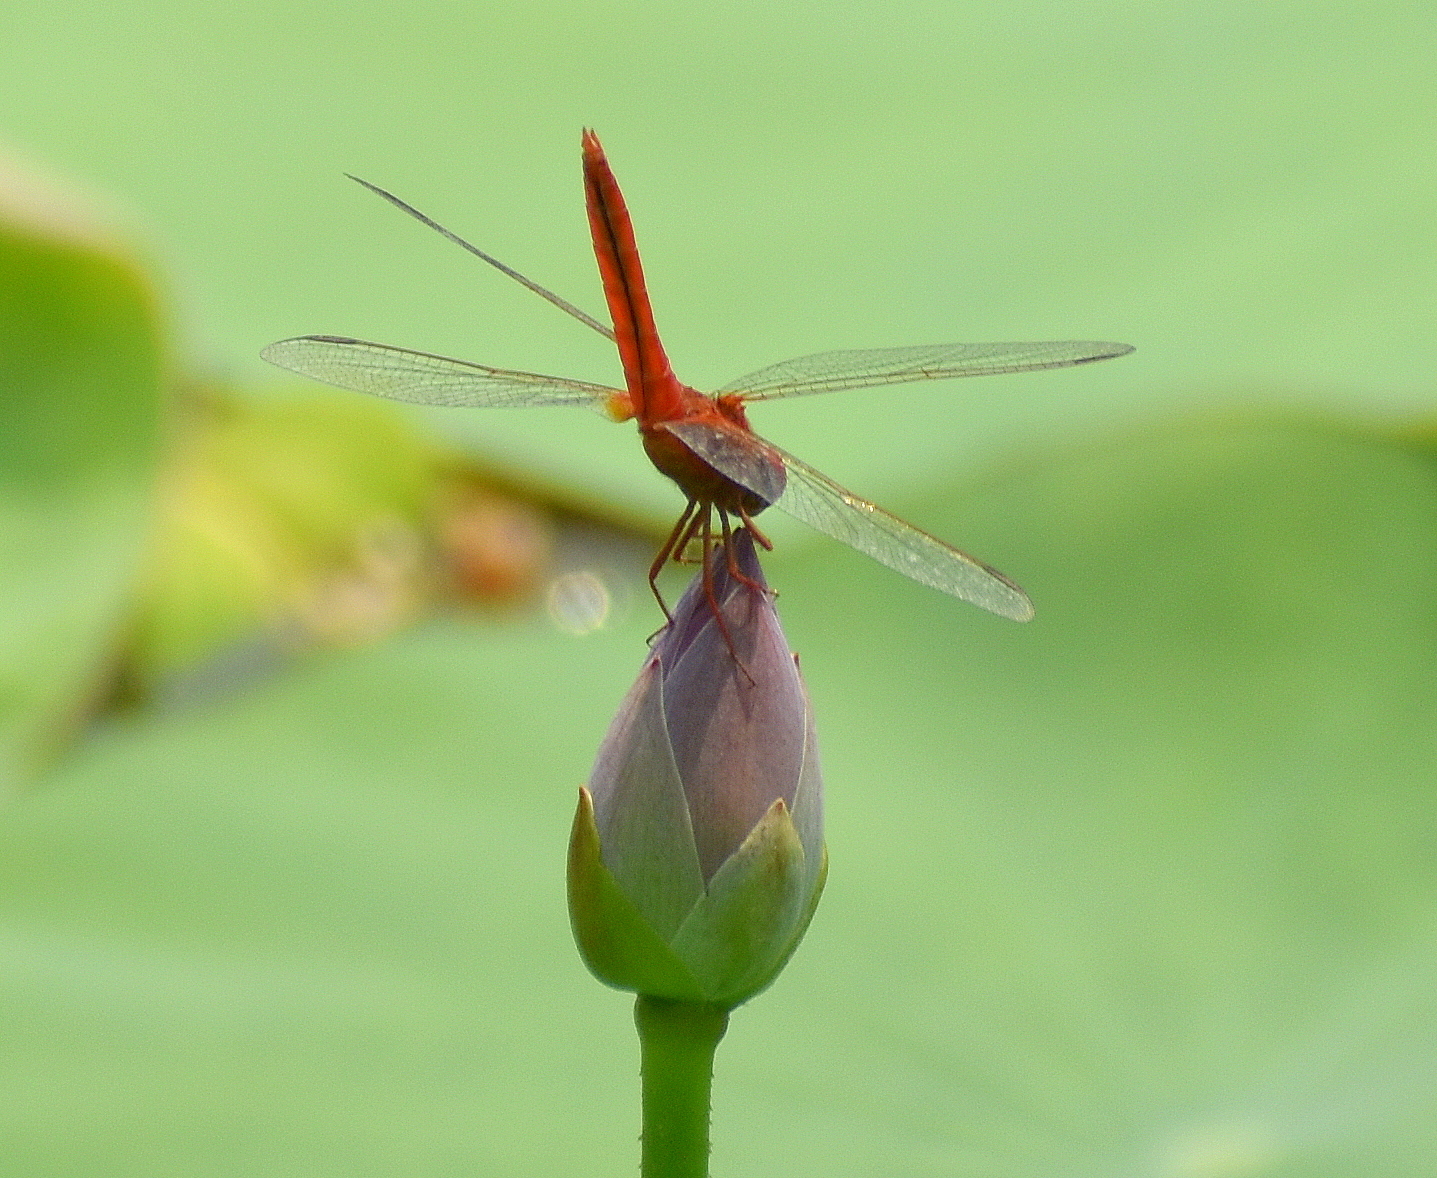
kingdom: Animalia
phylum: Arthropoda
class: Insecta
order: Odonata
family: Libellulidae
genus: Crocothemis
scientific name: Crocothemis servilia
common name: Scarlet skimmer
